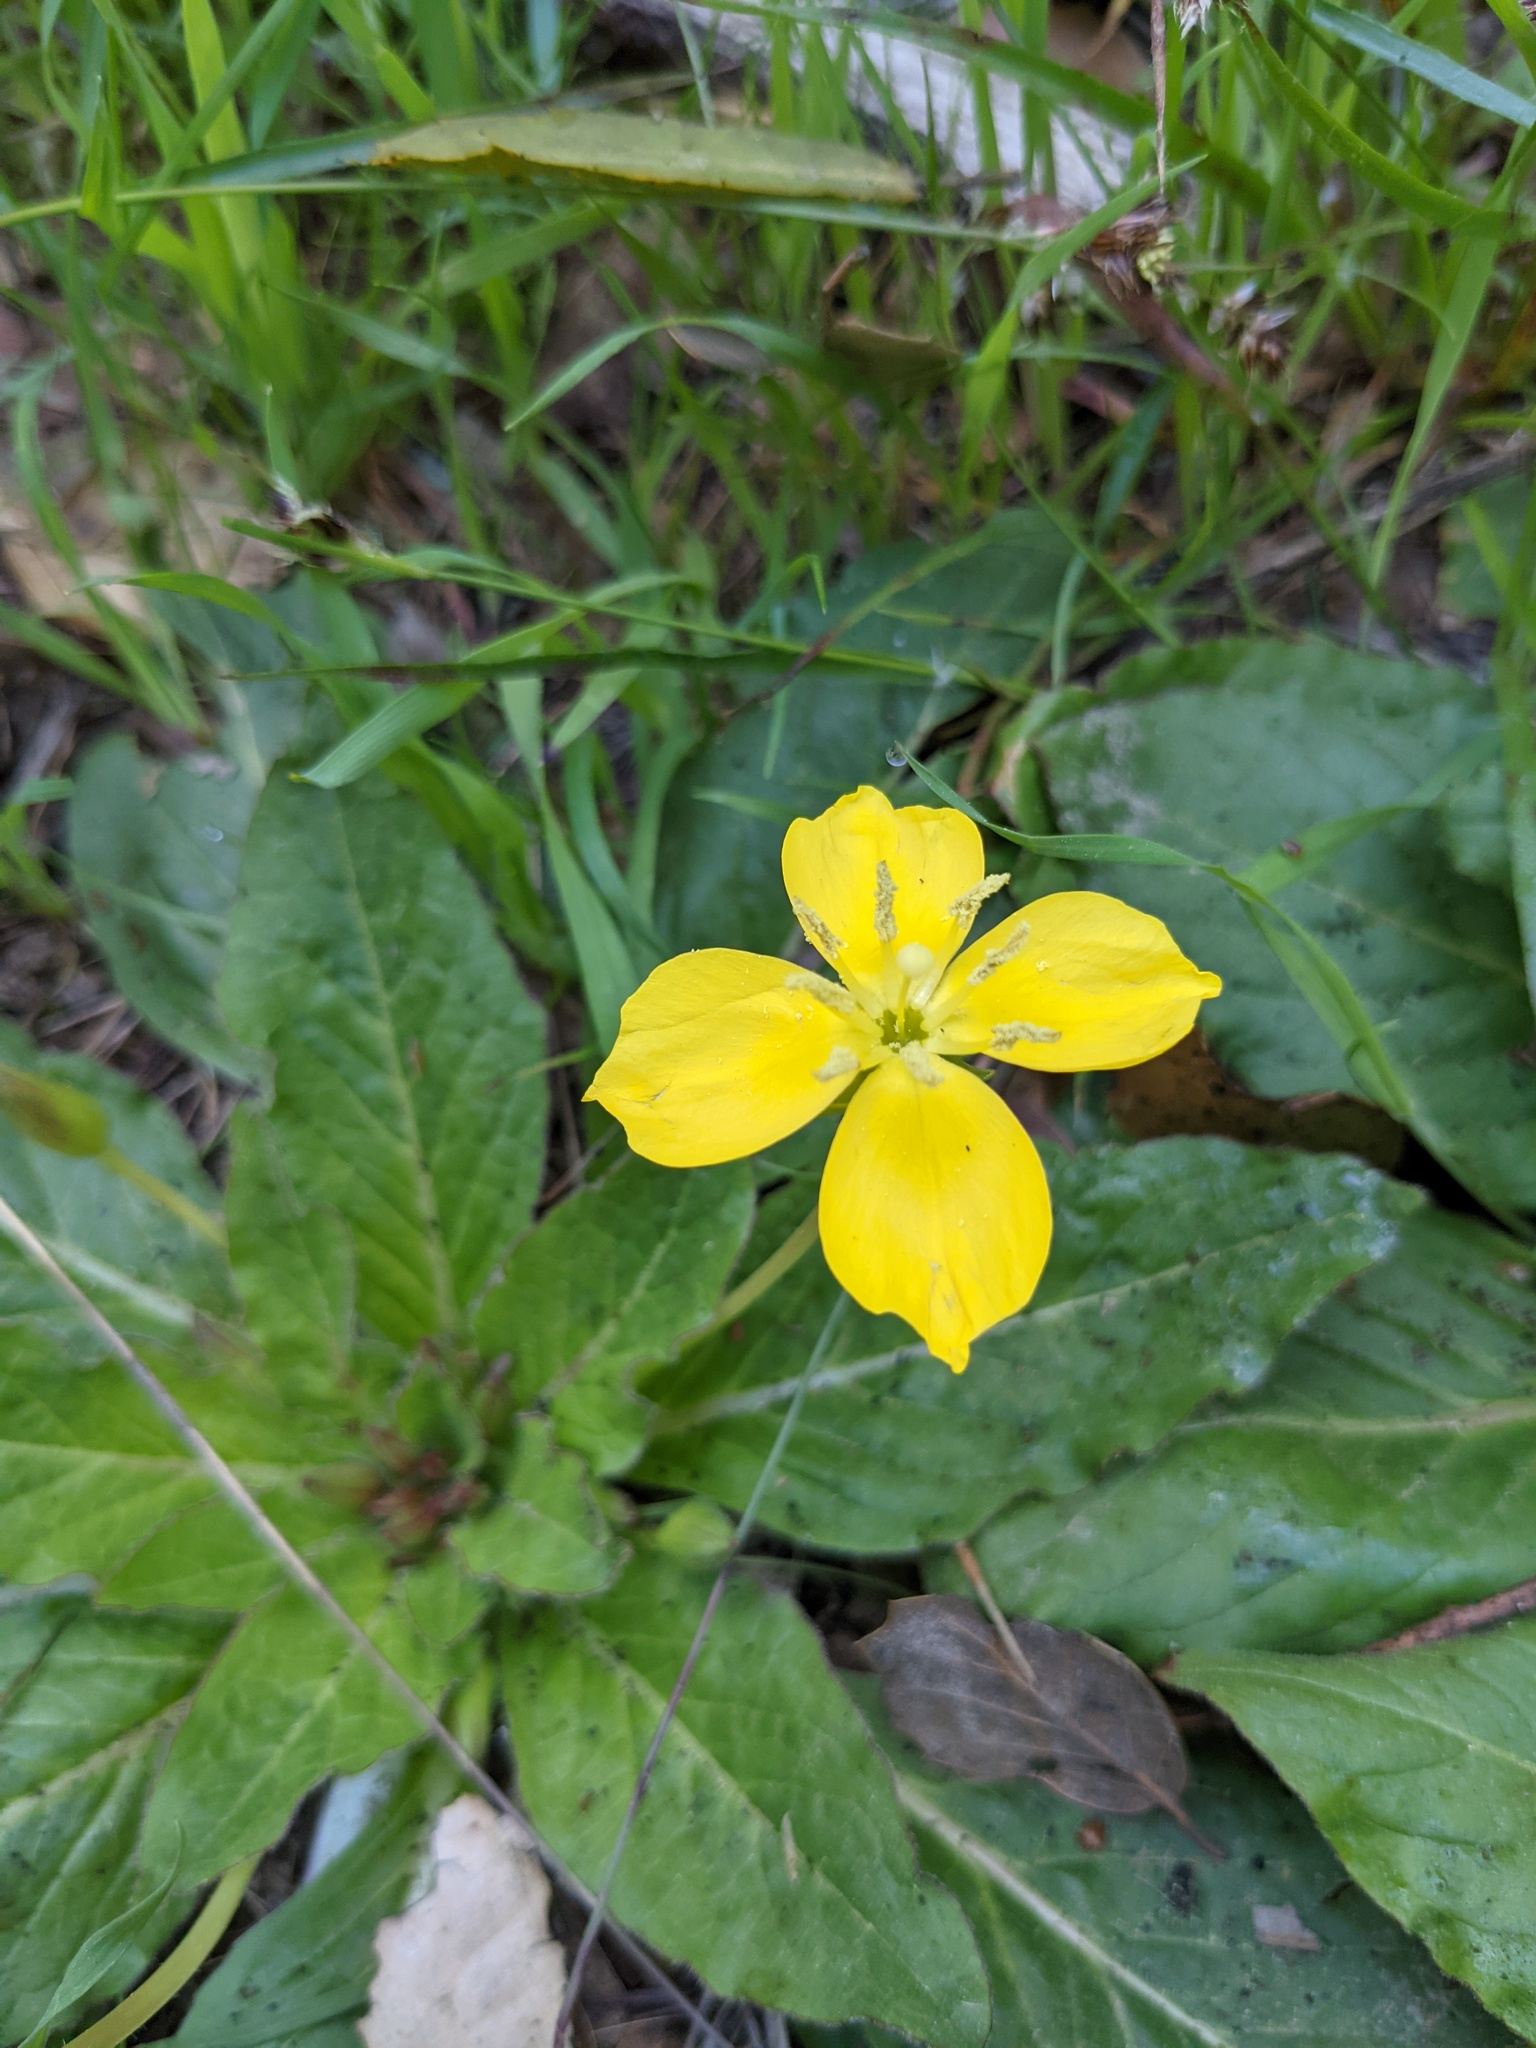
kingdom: Plantae
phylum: Tracheophyta
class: Magnoliopsida
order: Myrtales
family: Onagraceae
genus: Taraxia
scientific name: Taraxia ovata
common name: Goldeneggs
